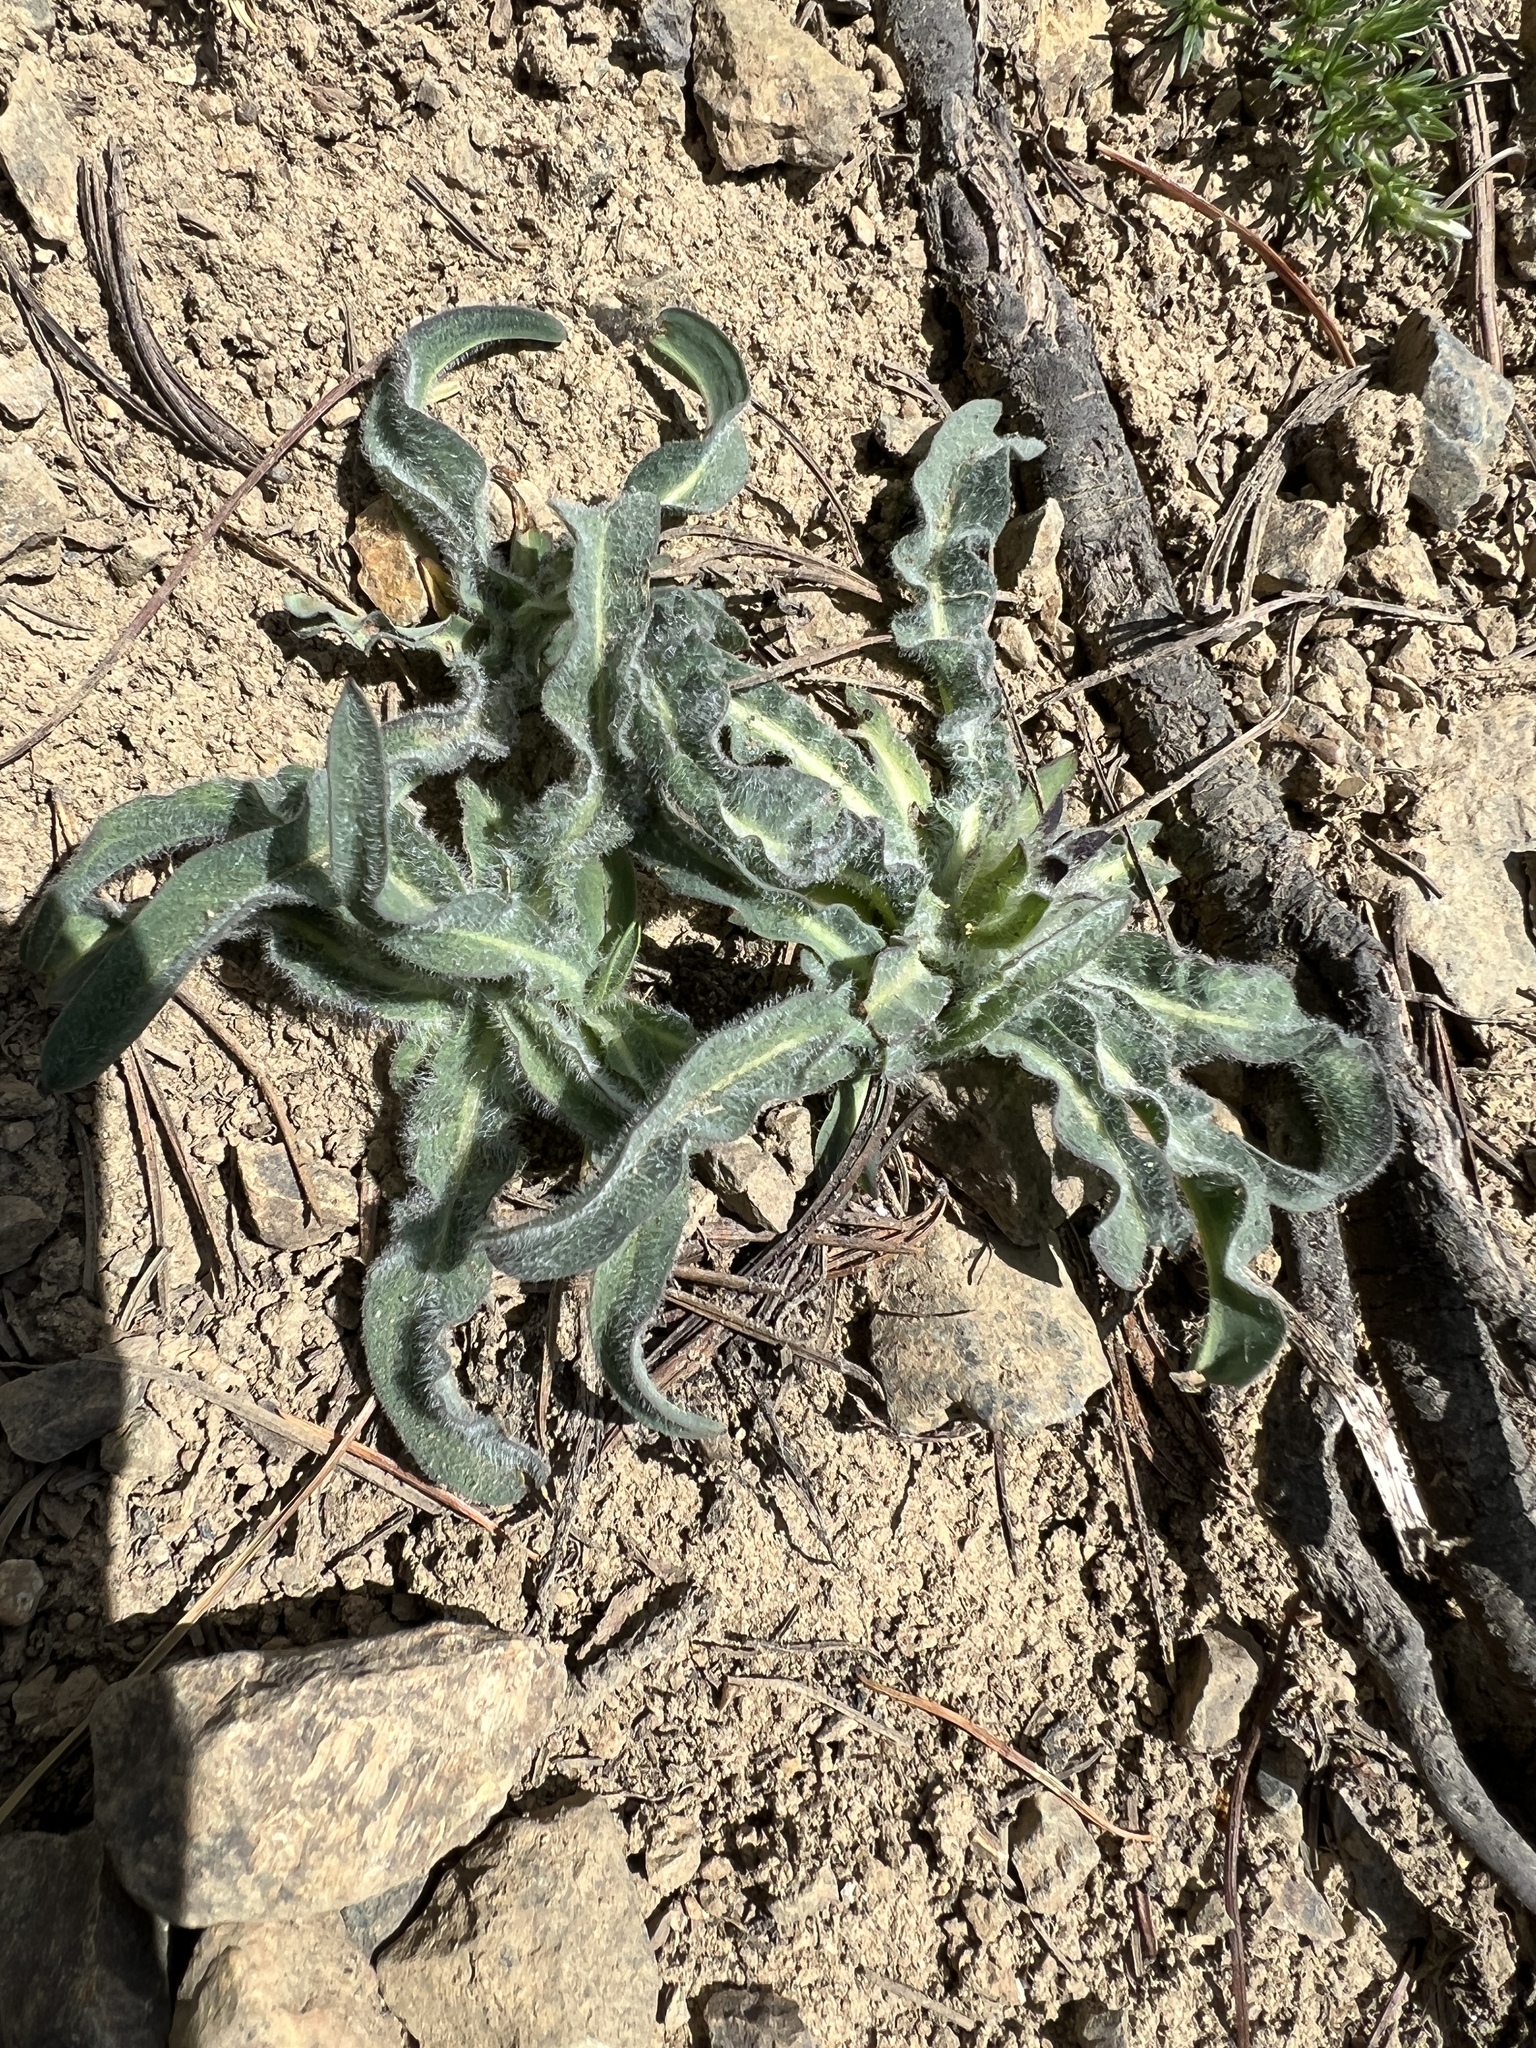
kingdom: Plantae
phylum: Tracheophyta
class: Magnoliopsida
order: Asterales
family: Asteraceae
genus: Agoseris
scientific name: Agoseris glauca
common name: Prairie agoseris
